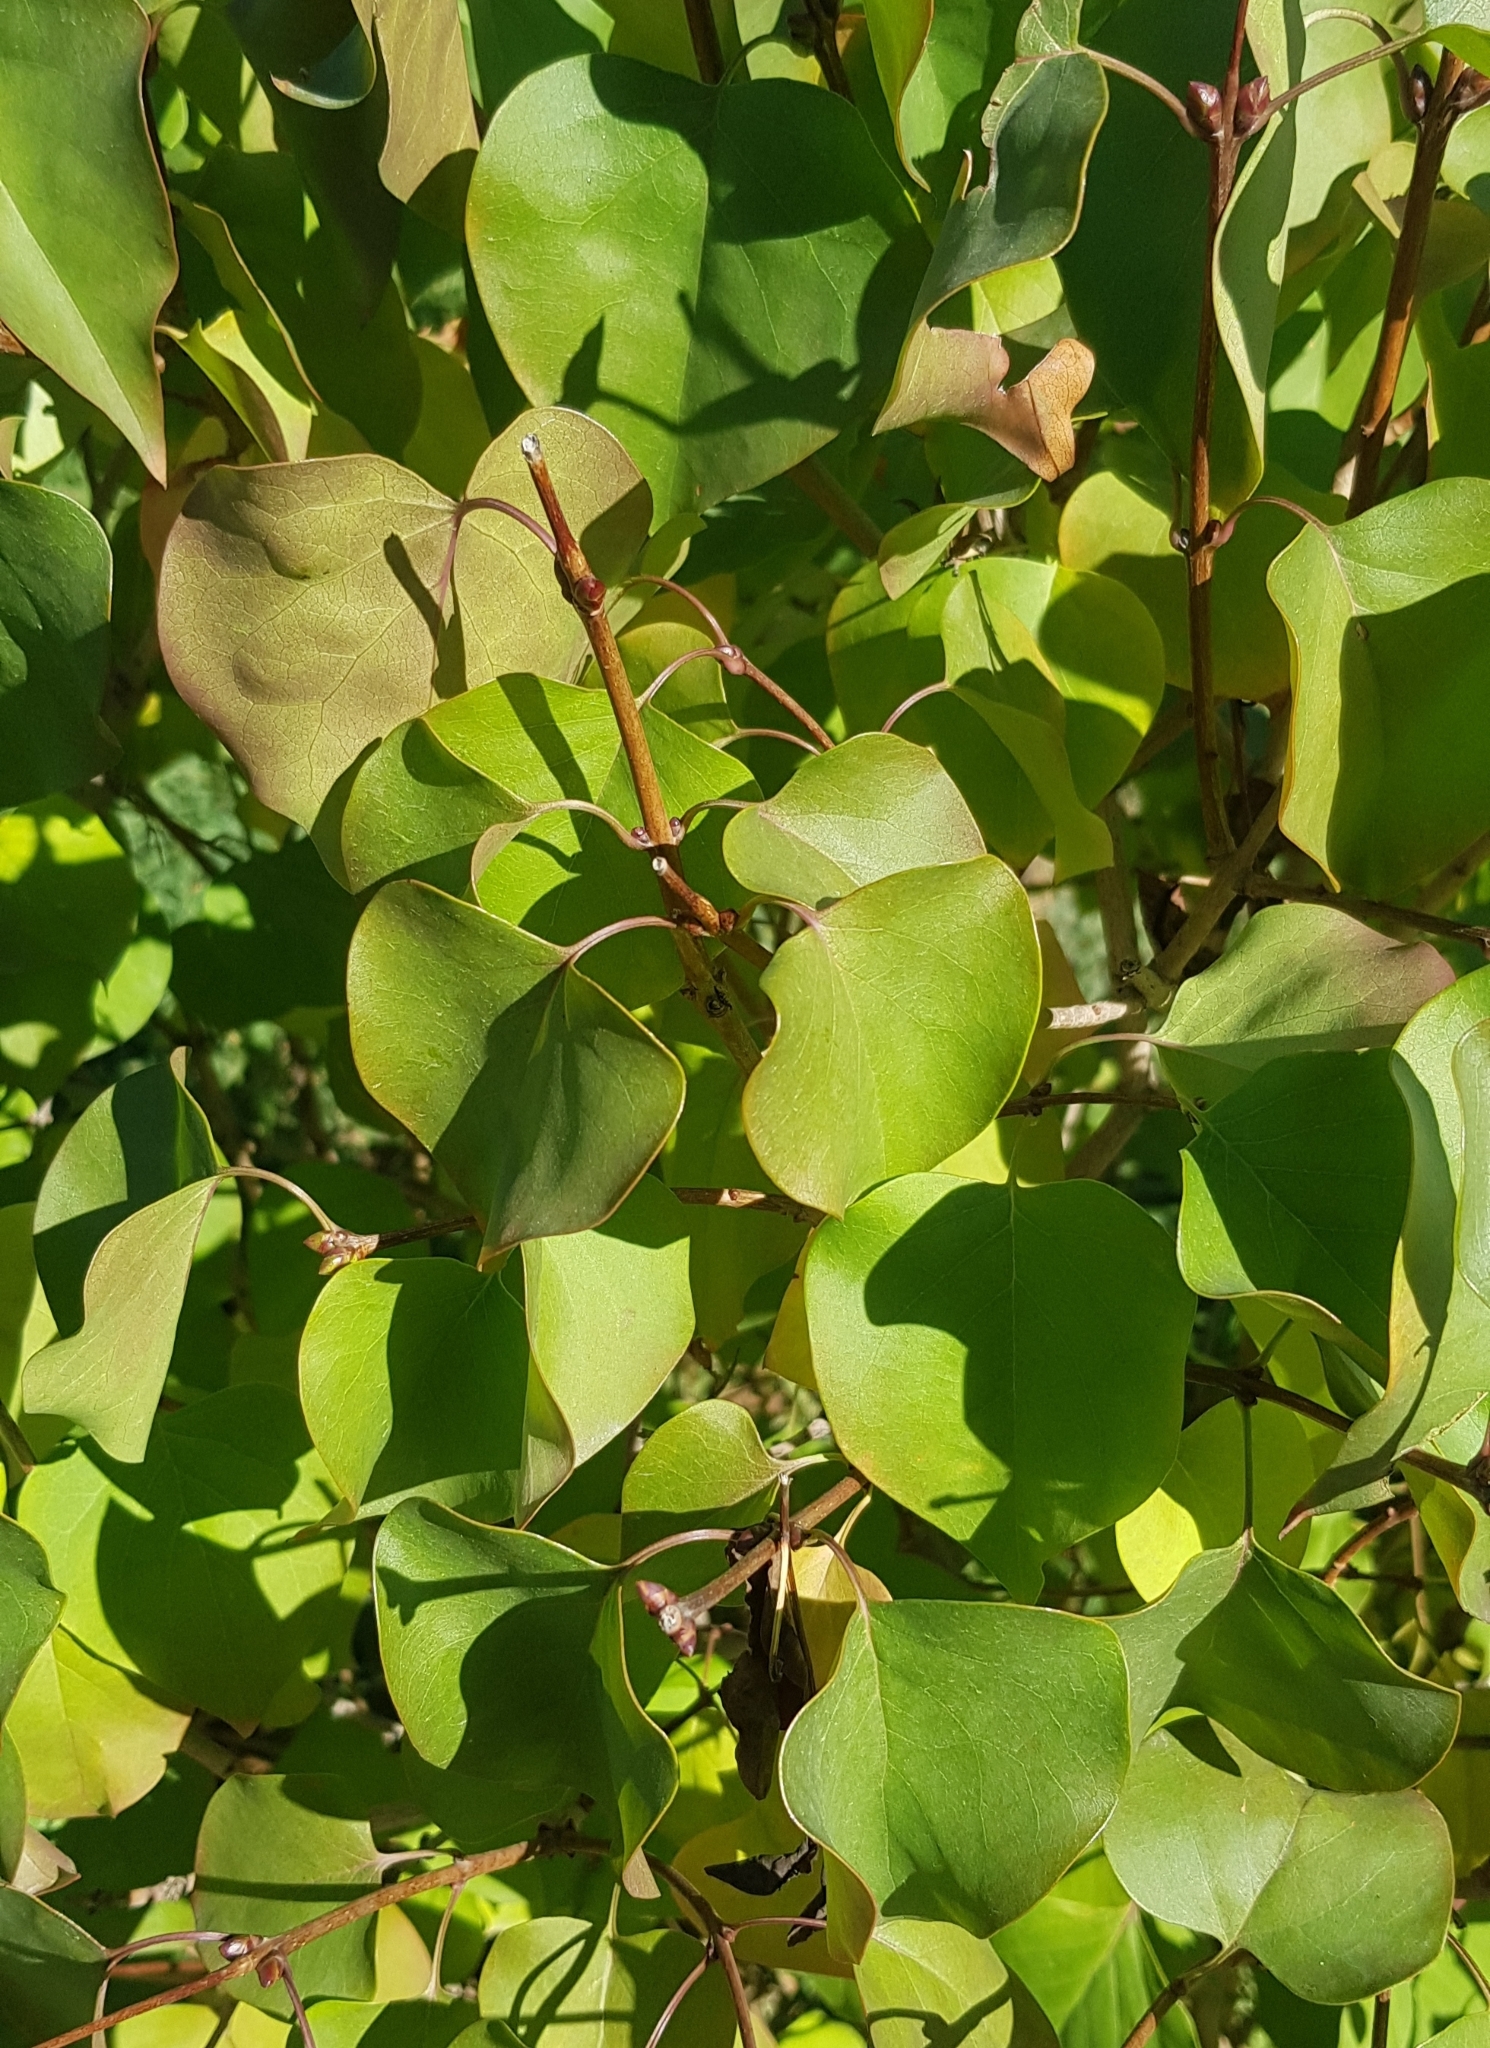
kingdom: Plantae
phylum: Tracheophyta
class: Magnoliopsida
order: Rosales
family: Rosaceae
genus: Prunus
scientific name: Prunus armeniaca
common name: Apricot
